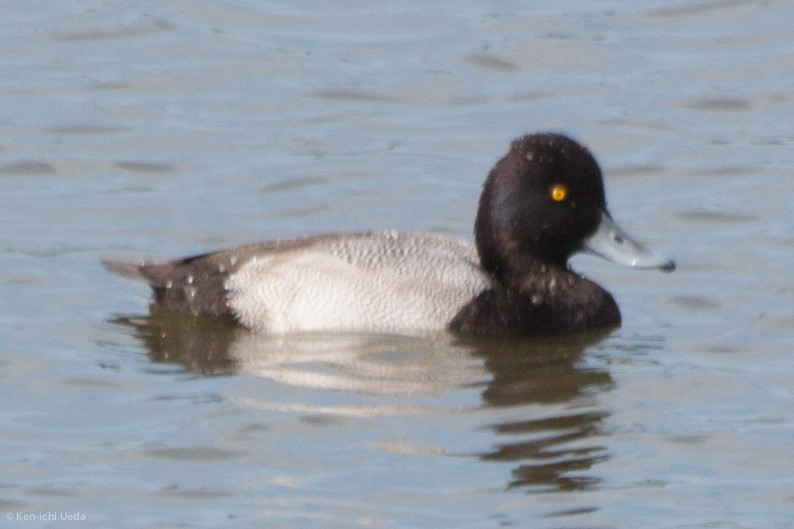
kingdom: Animalia
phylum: Chordata
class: Aves
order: Anseriformes
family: Anatidae
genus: Aythya
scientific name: Aythya affinis
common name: Lesser scaup
